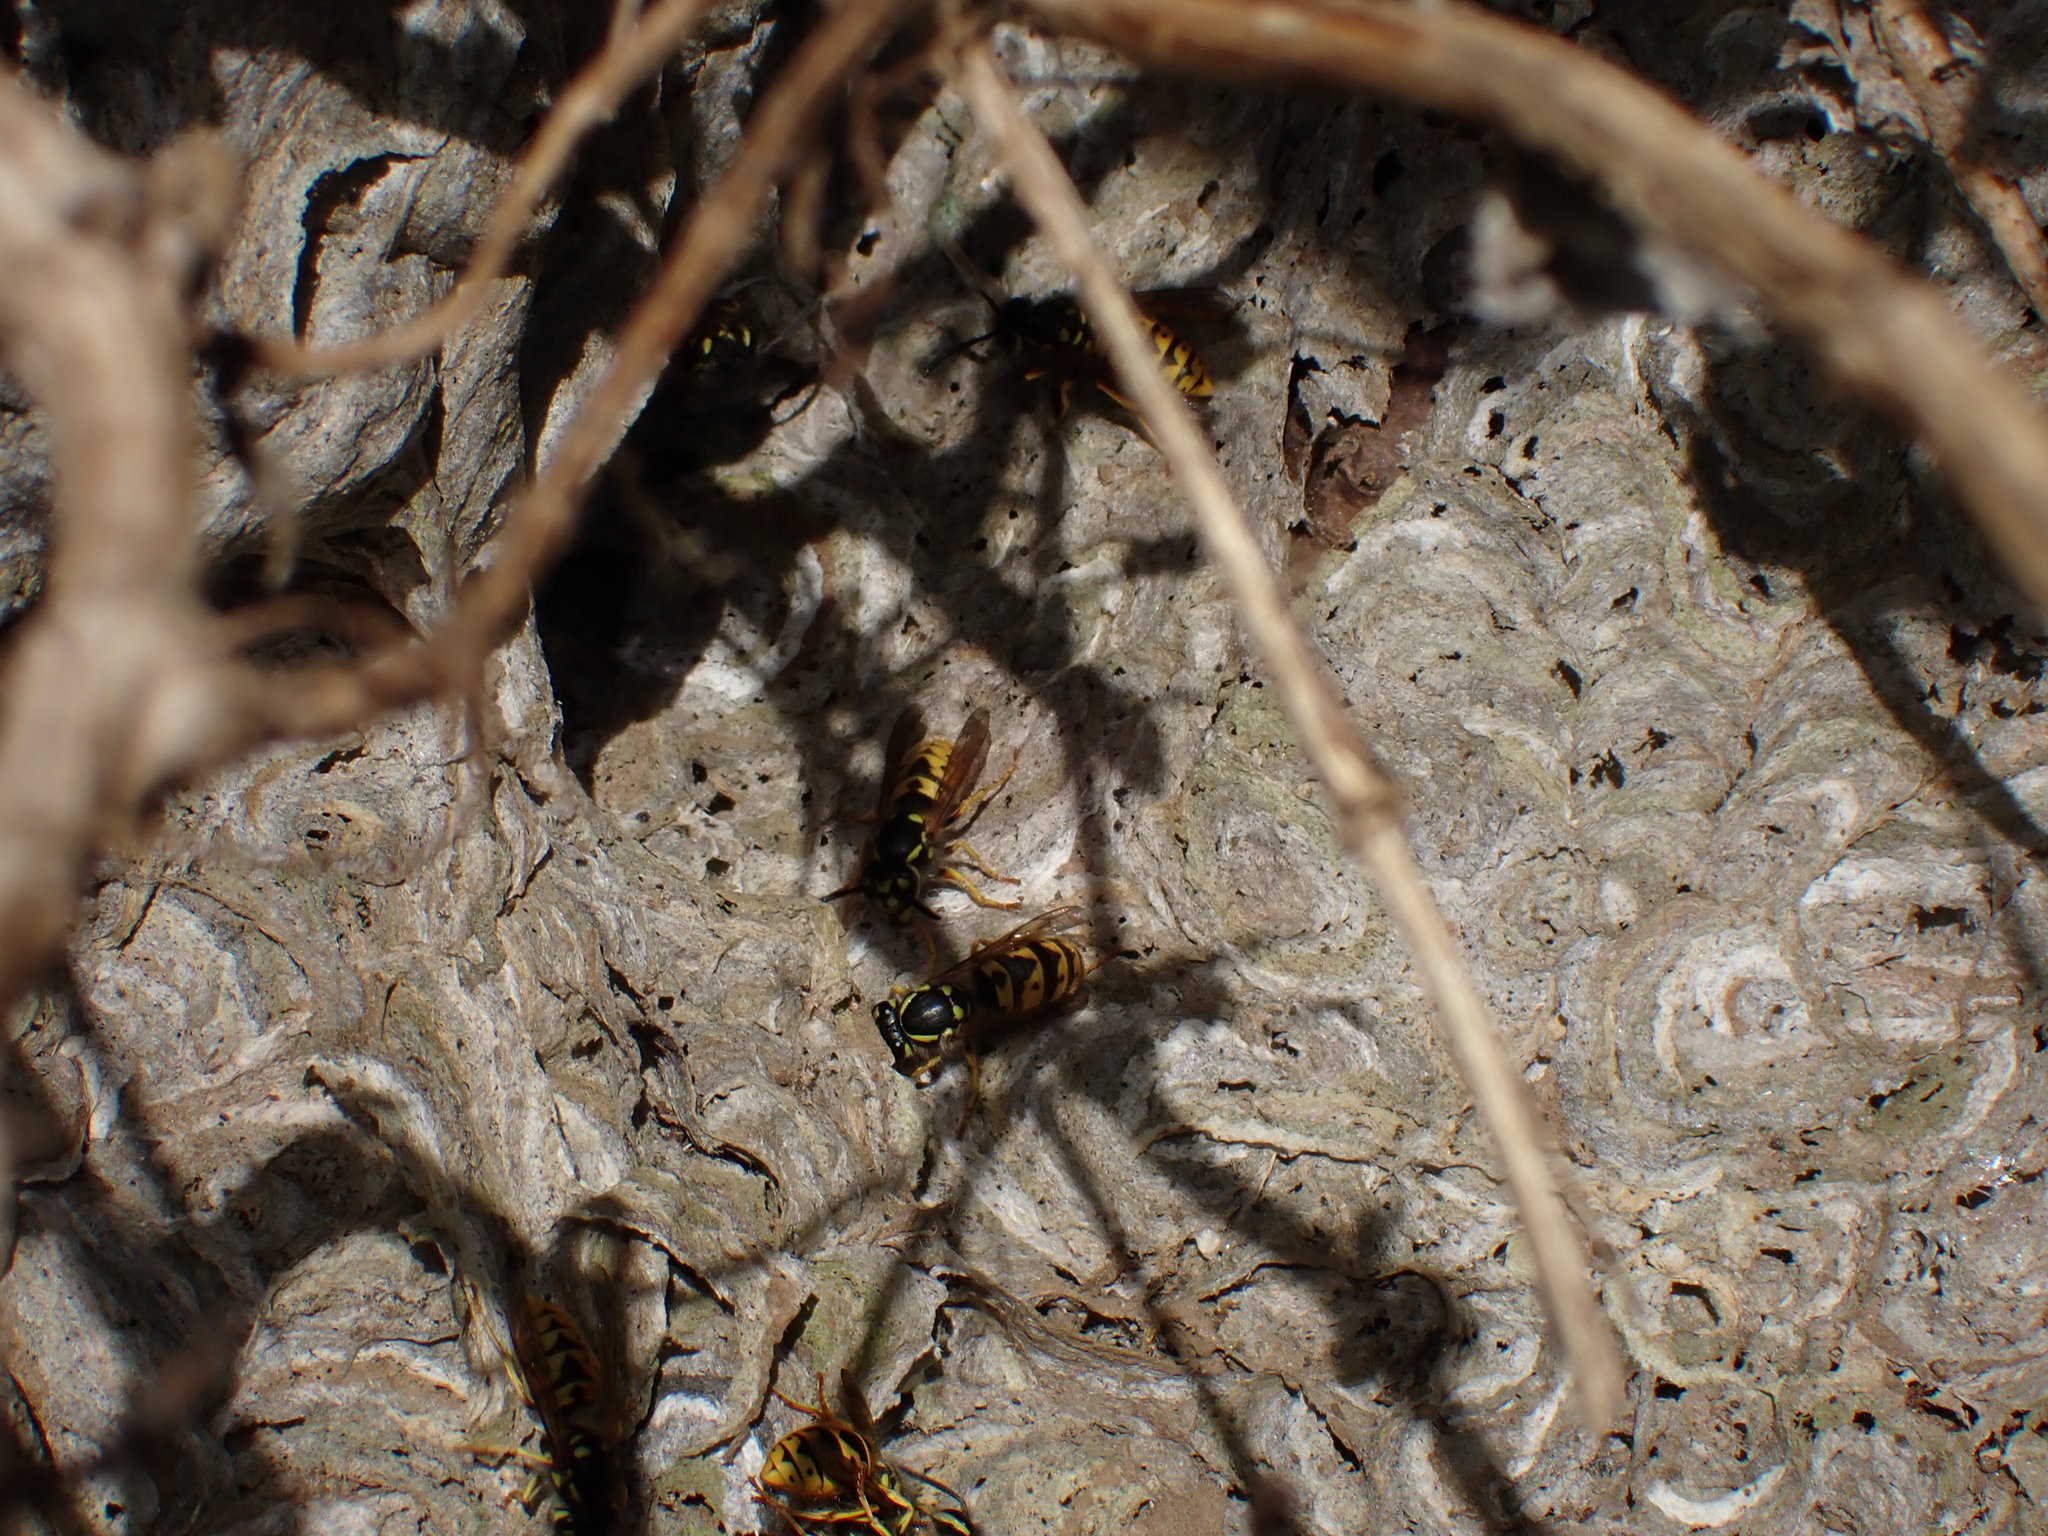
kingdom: Animalia
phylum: Arthropoda
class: Insecta
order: Hymenoptera
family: Vespidae
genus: Vespula
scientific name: Vespula germanica
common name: German wasp
